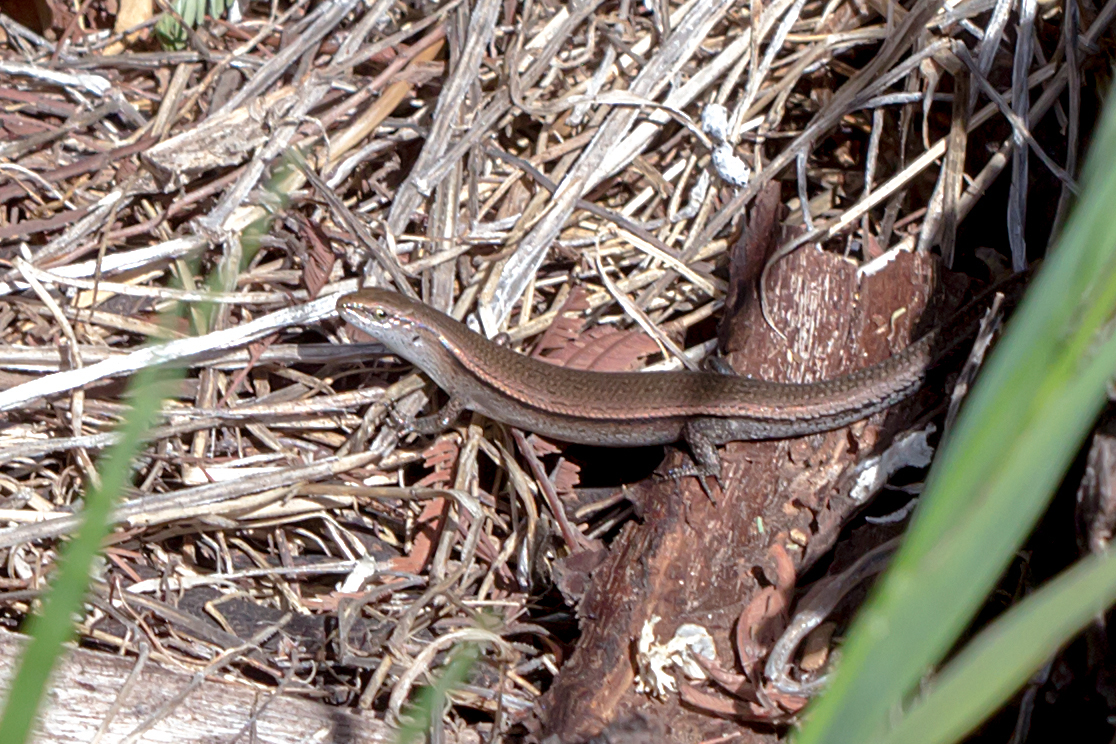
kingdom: Animalia
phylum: Chordata
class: Squamata
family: Scincidae
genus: Lampropholis
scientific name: Lampropholis delicata
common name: Plague skink
